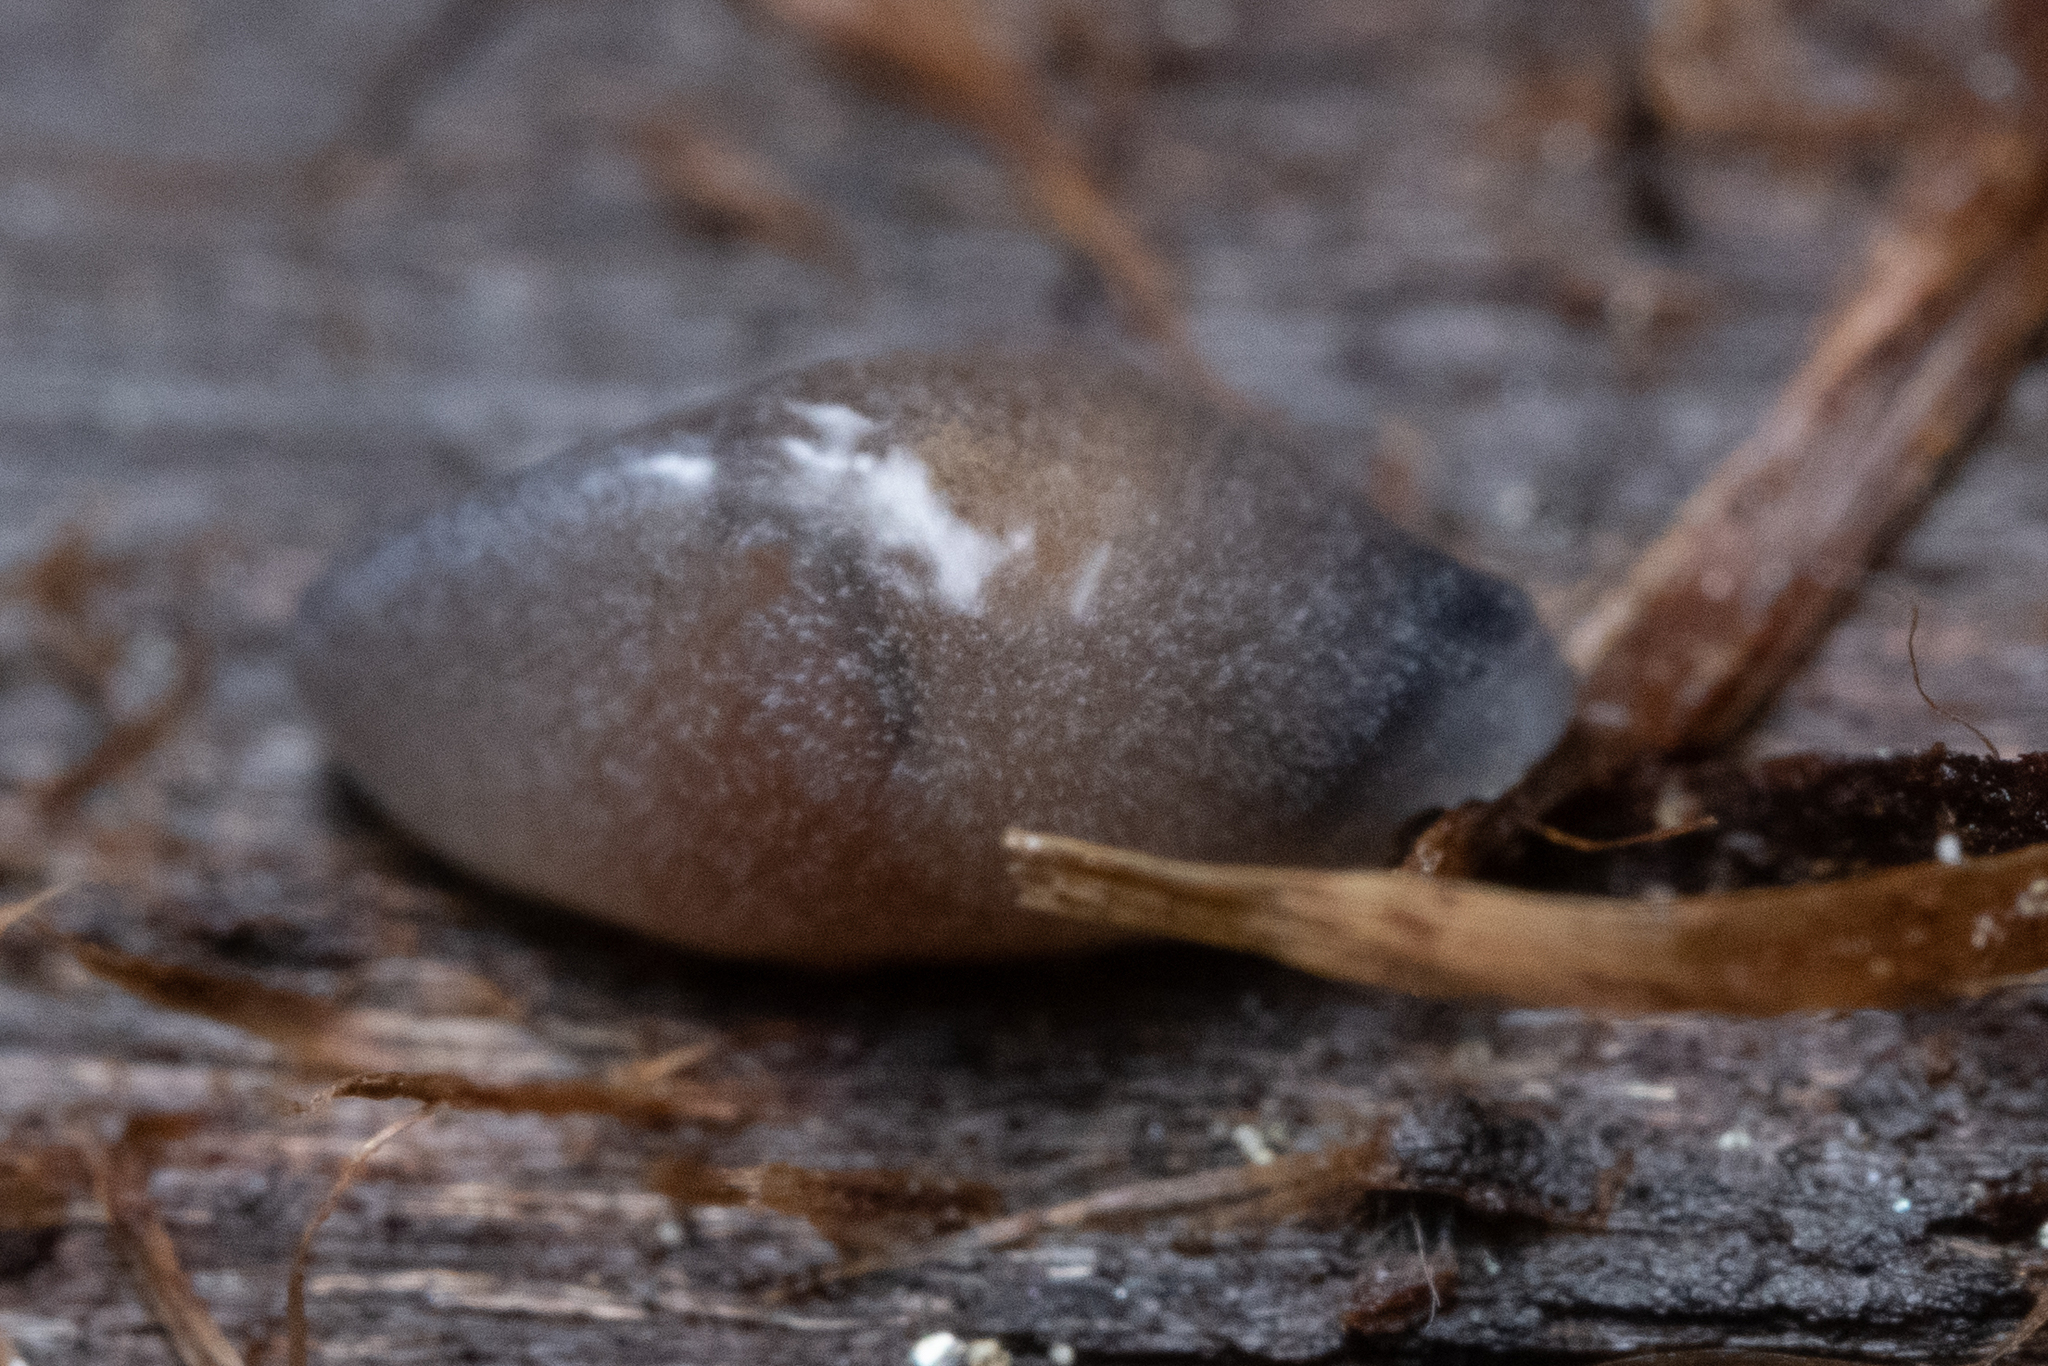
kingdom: Animalia
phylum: Mollusca
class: Gastropoda
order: Stylommatophora
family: Ariolimacidae
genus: Zacoleus
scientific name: Zacoleus idahoensis
